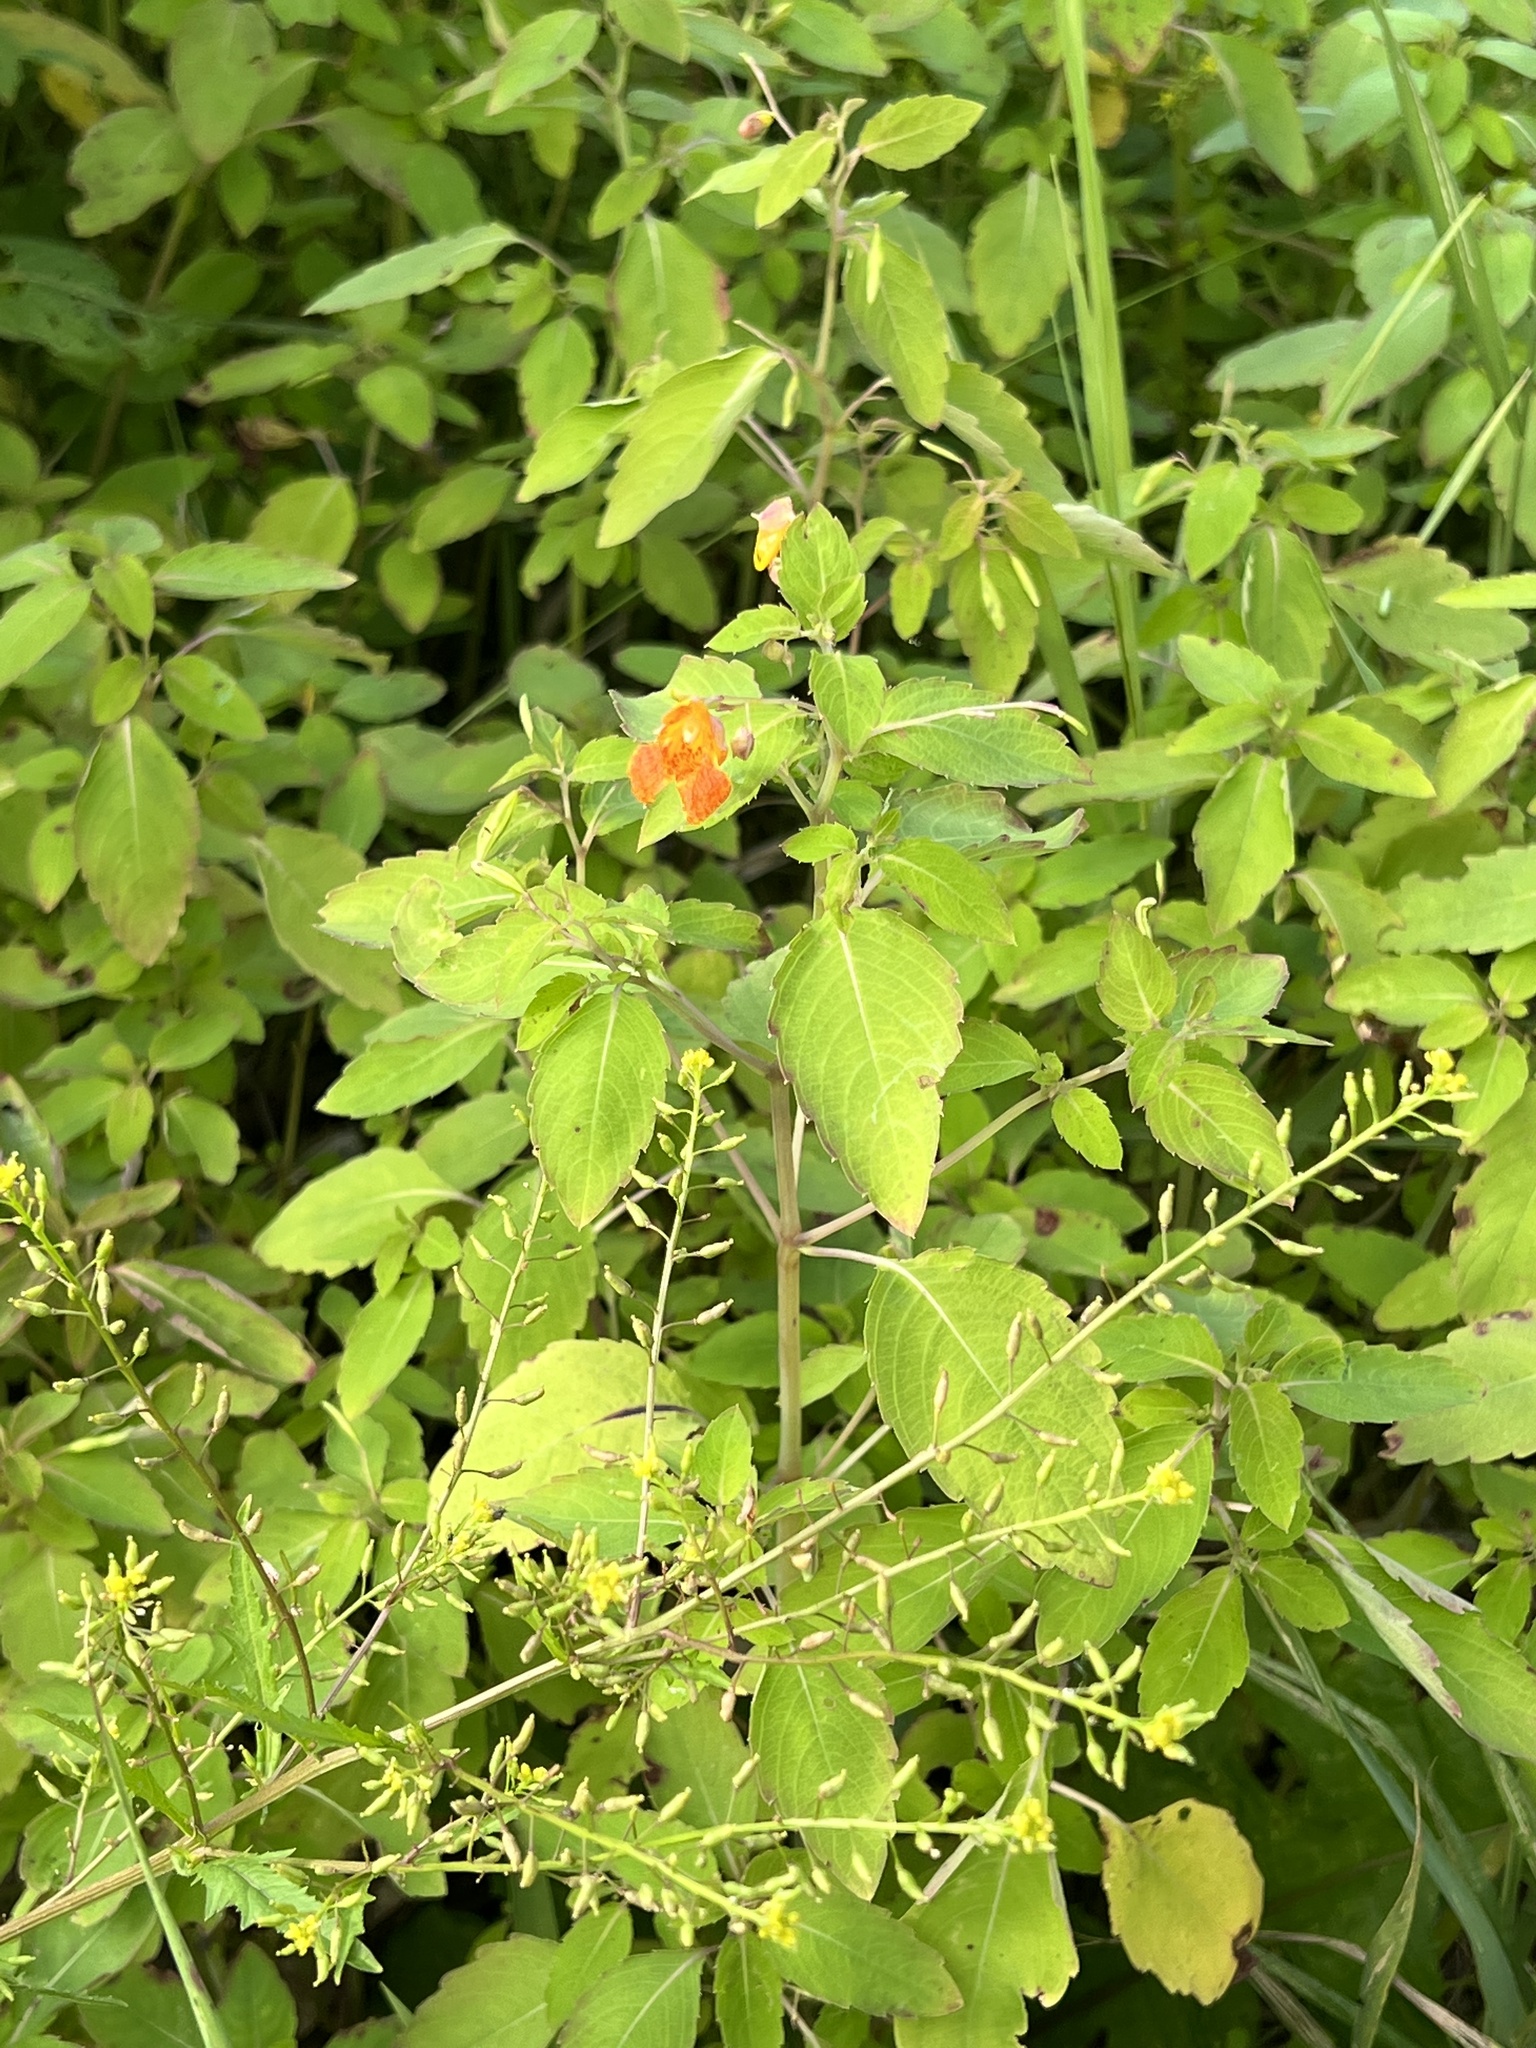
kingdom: Plantae
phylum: Tracheophyta
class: Magnoliopsida
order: Ericales
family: Balsaminaceae
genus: Impatiens
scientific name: Impatiens capensis
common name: Orange balsam
